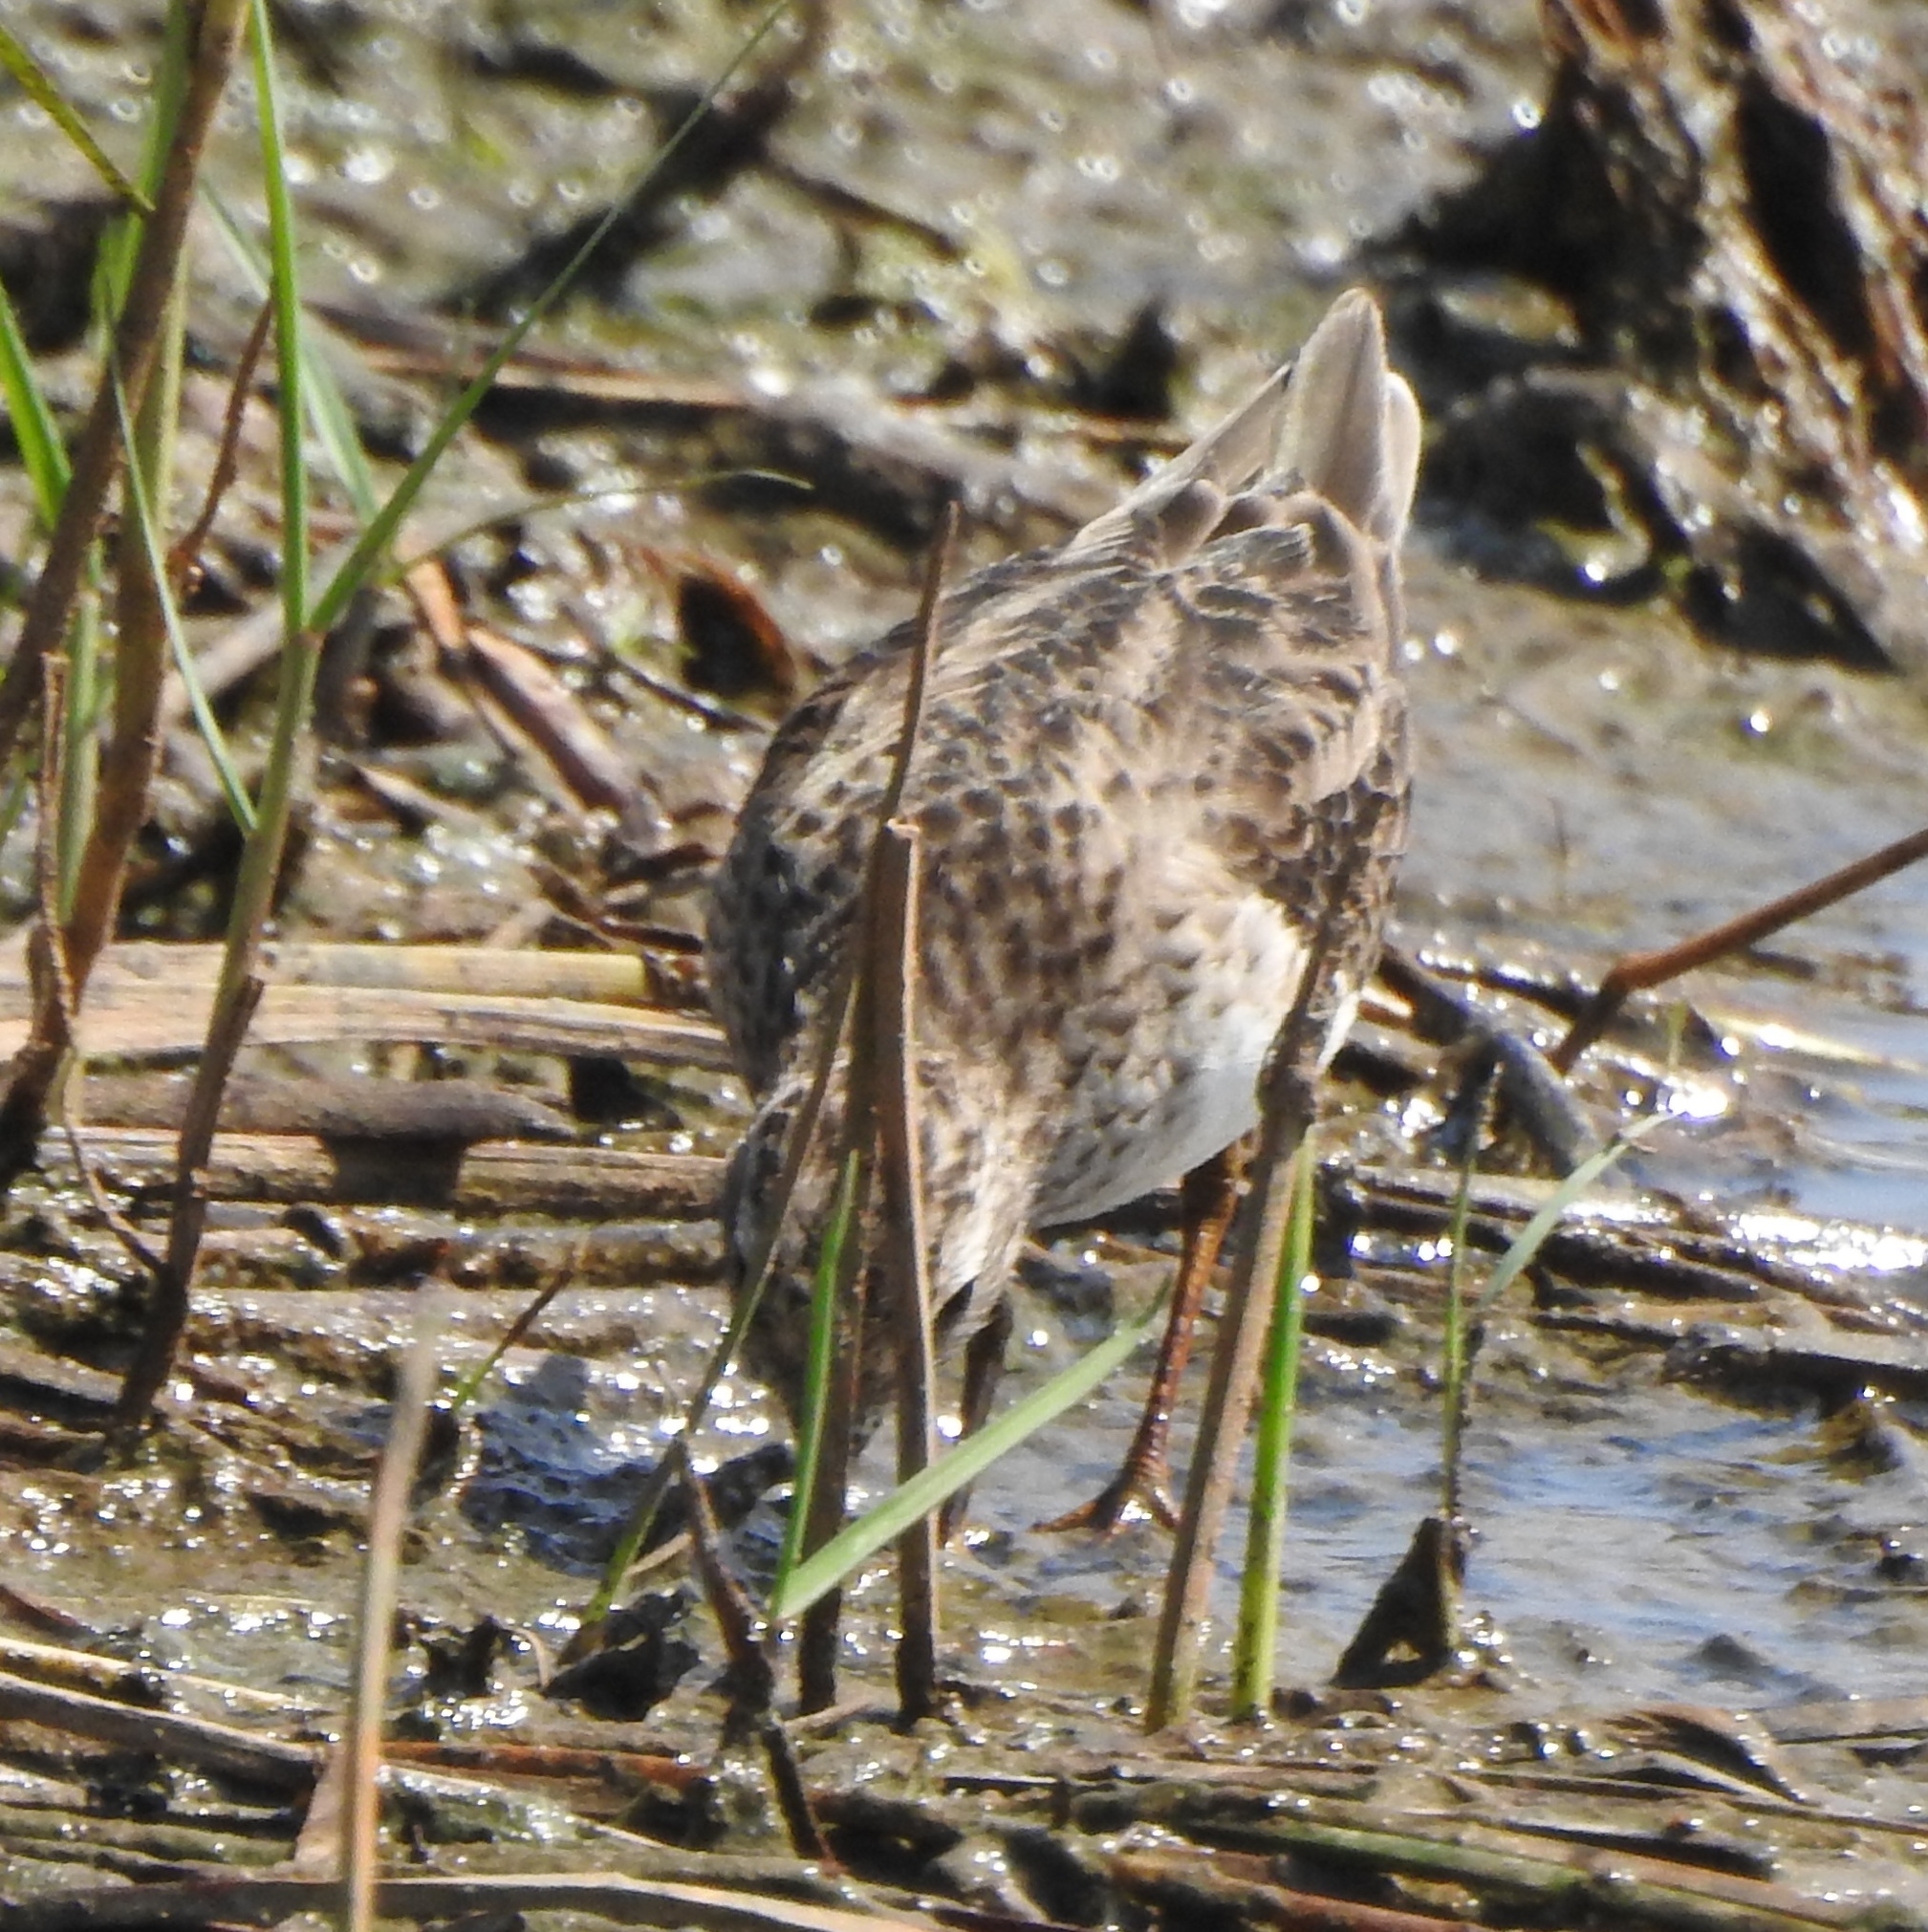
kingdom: Animalia
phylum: Chordata
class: Aves
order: Charadriiformes
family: Scolopacidae
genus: Calidris
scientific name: Calidris subminuta
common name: Long-toed stint
